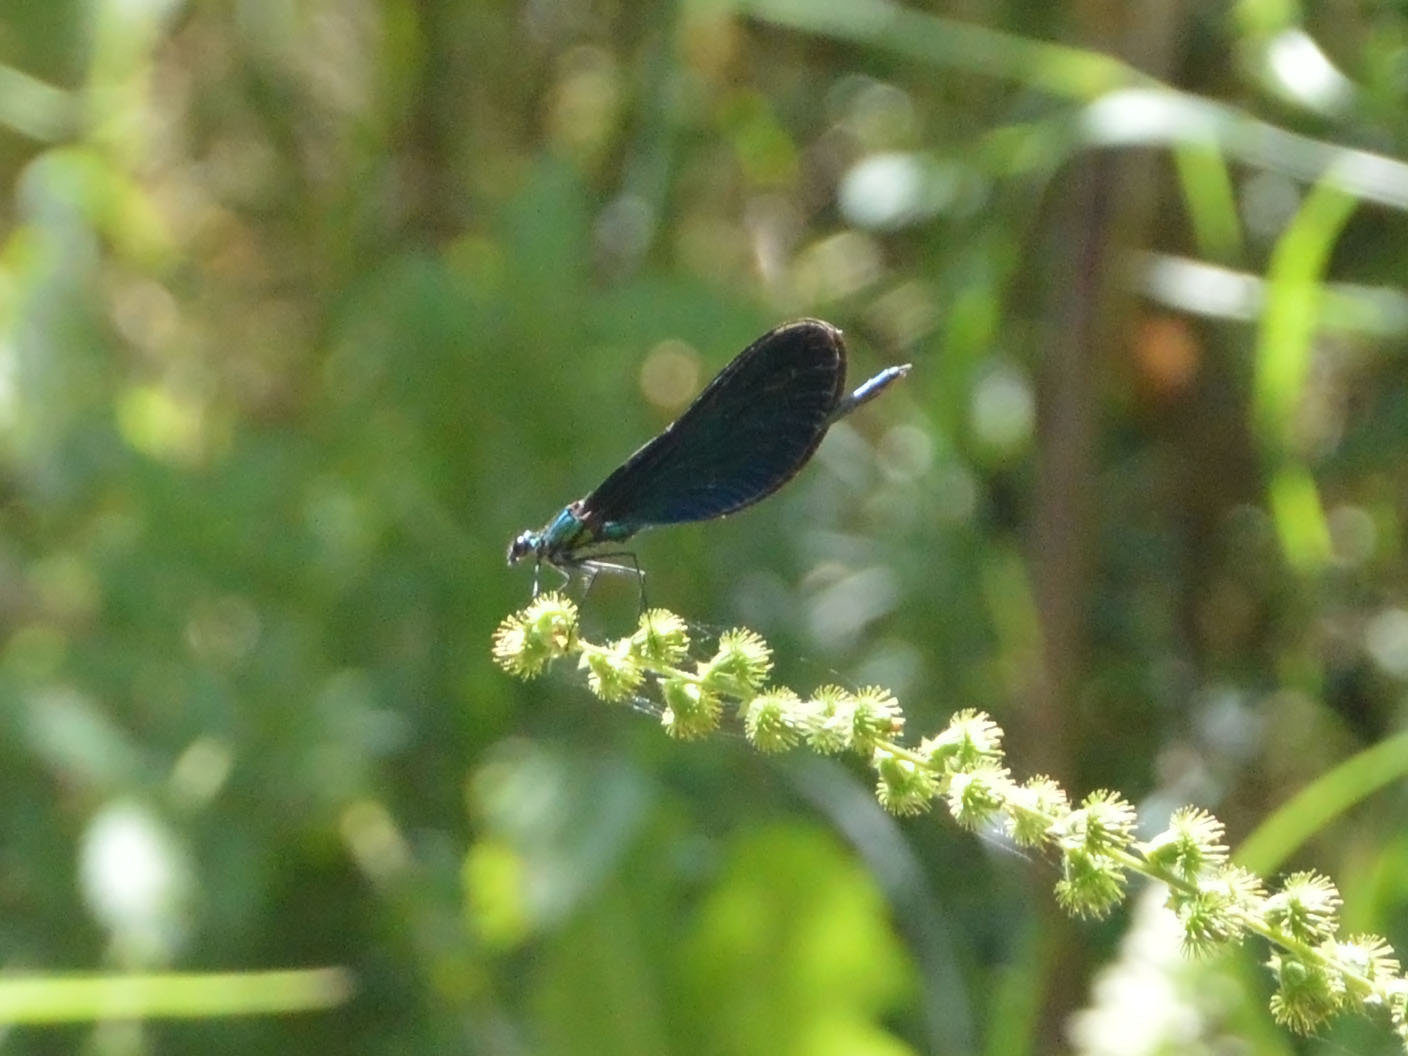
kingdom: Animalia
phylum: Arthropoda
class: Insecta
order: Odonata
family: Calopterygidae
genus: Calopteryx
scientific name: Calopteryx virgo
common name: Beautiful demoiselle
